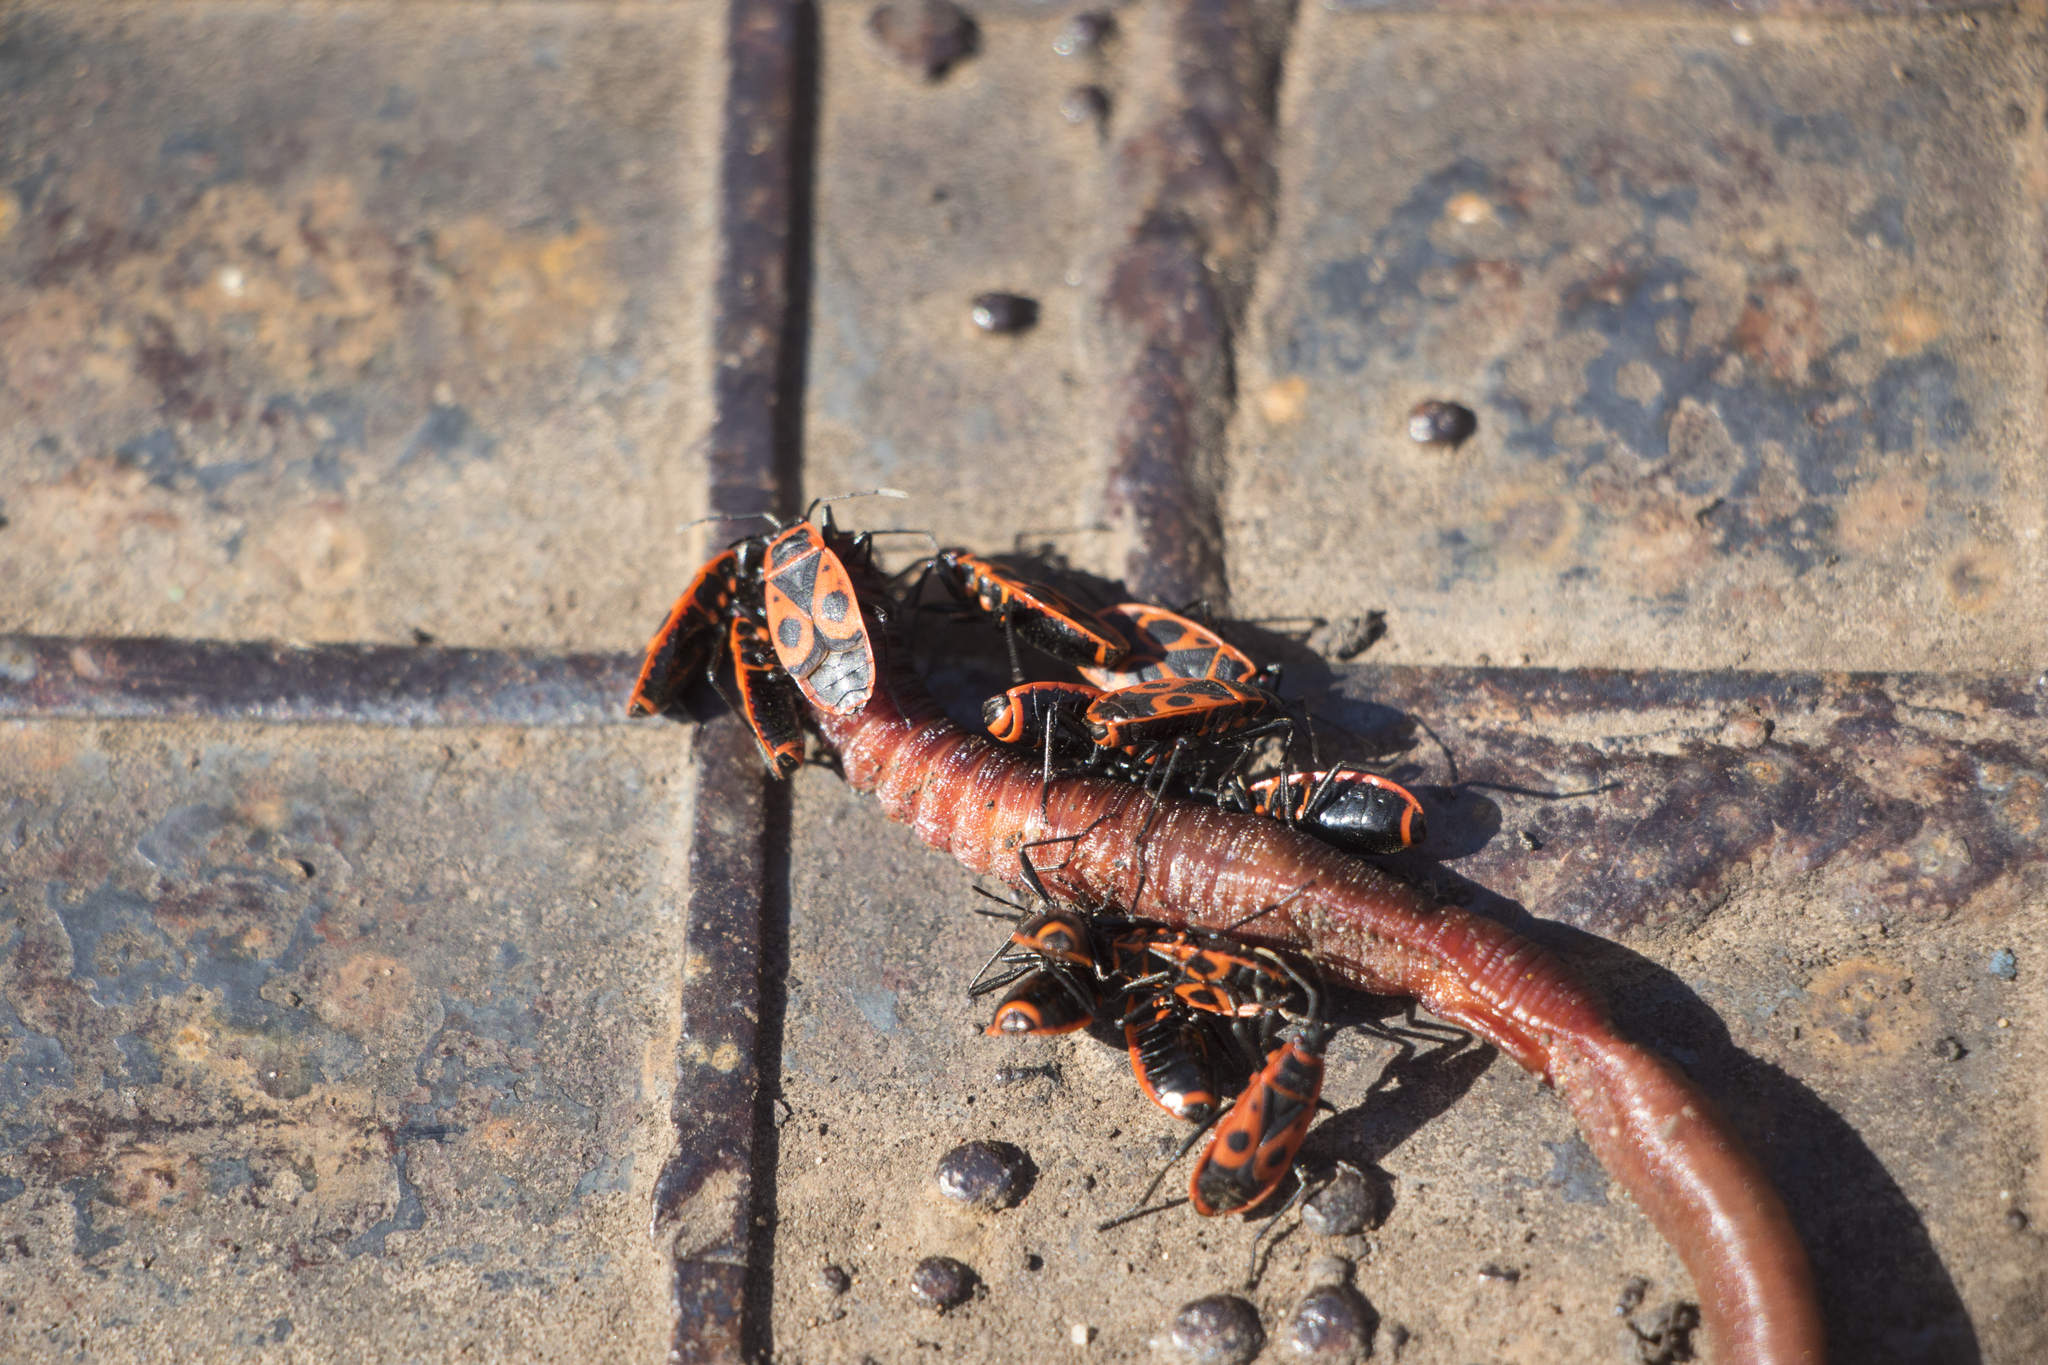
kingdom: Animalia
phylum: Arthropoda
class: Insecta
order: Hemiptera
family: Pyrrhocoridae
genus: Pyrrhocoris
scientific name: Pyrrhocoris apterus
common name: Firebug
